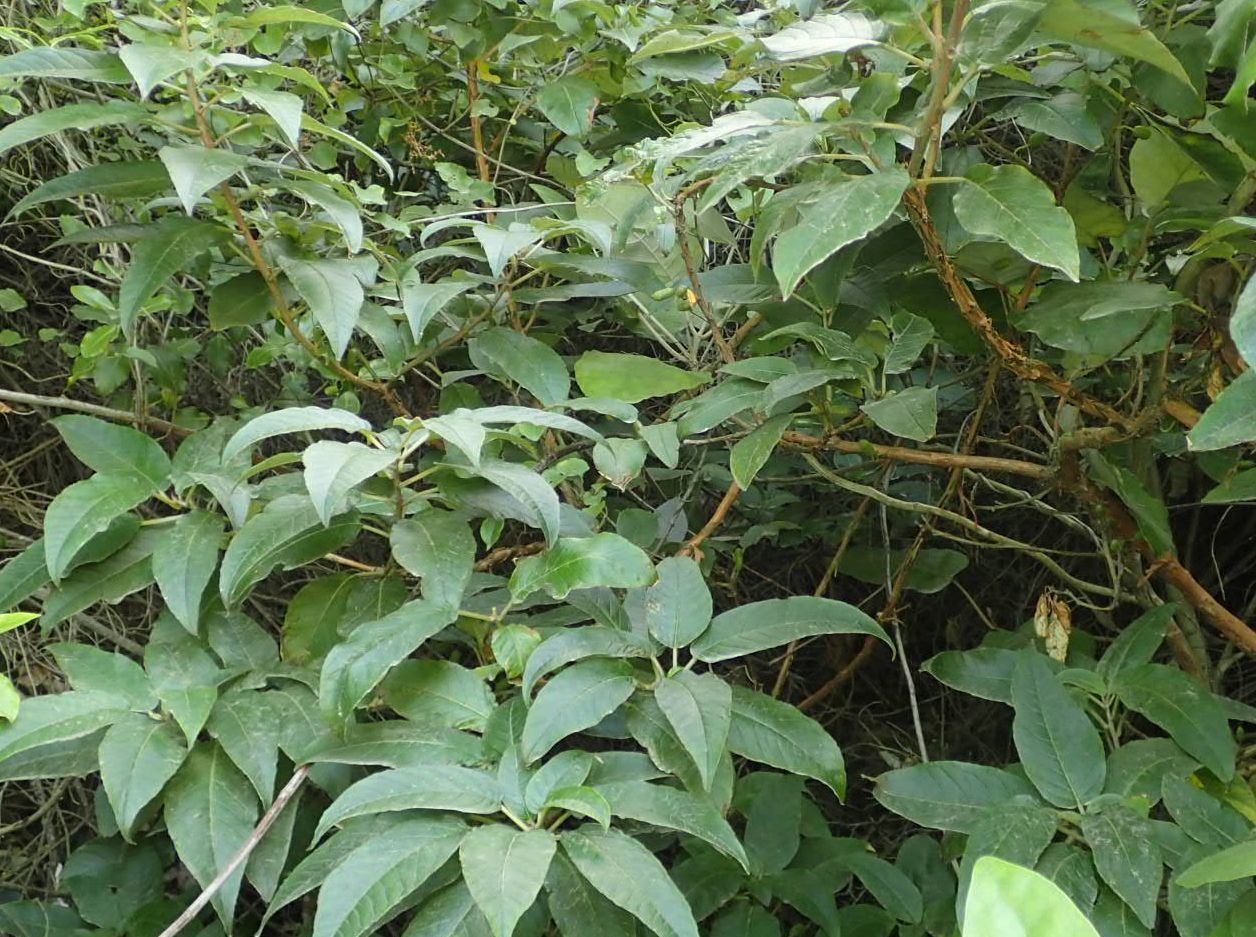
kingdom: Plantae
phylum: Tracheophyta
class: Magnoliopsida
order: Myrtales
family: Onagraceae
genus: Fuchsia
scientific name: Fuchsia excorticata
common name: Tree fuchsia
